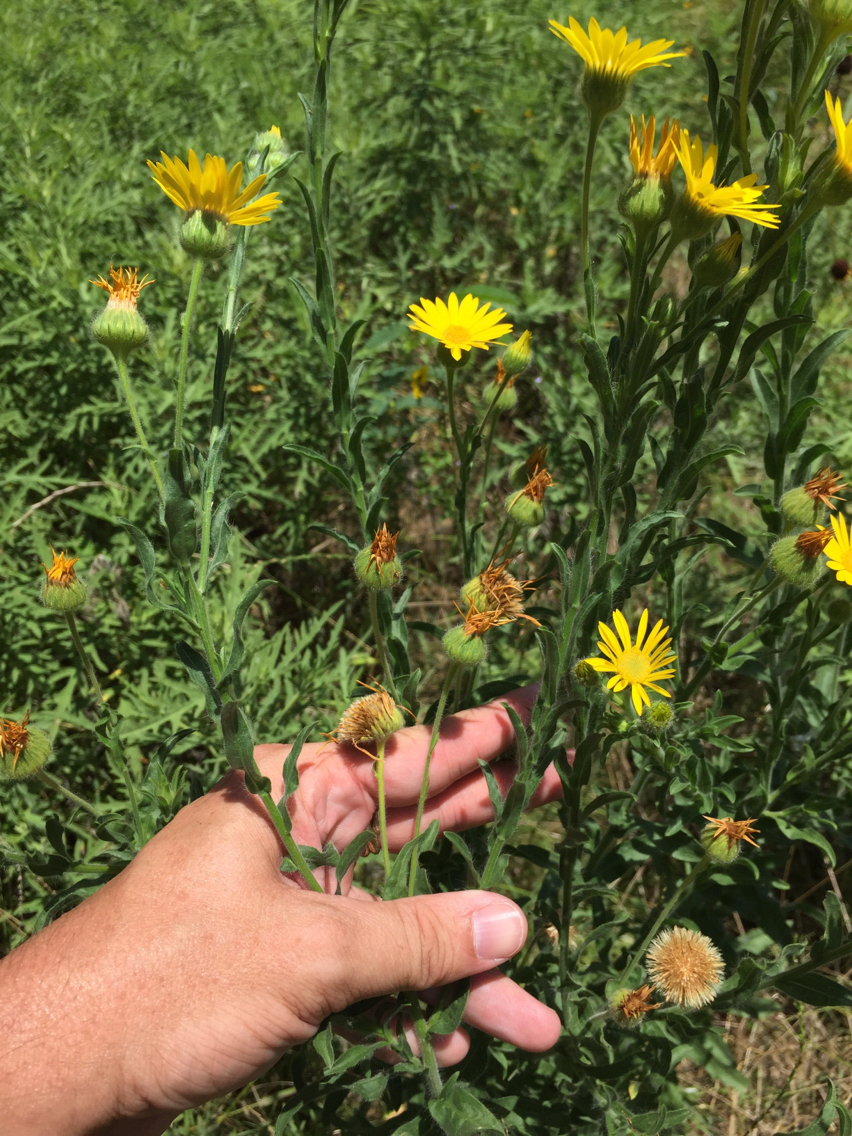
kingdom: Plantae
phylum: Tracheophyta
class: Magnoliopsida
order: Asterales
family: Asteraceae
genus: Bradburia
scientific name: Bradburia pilosa
